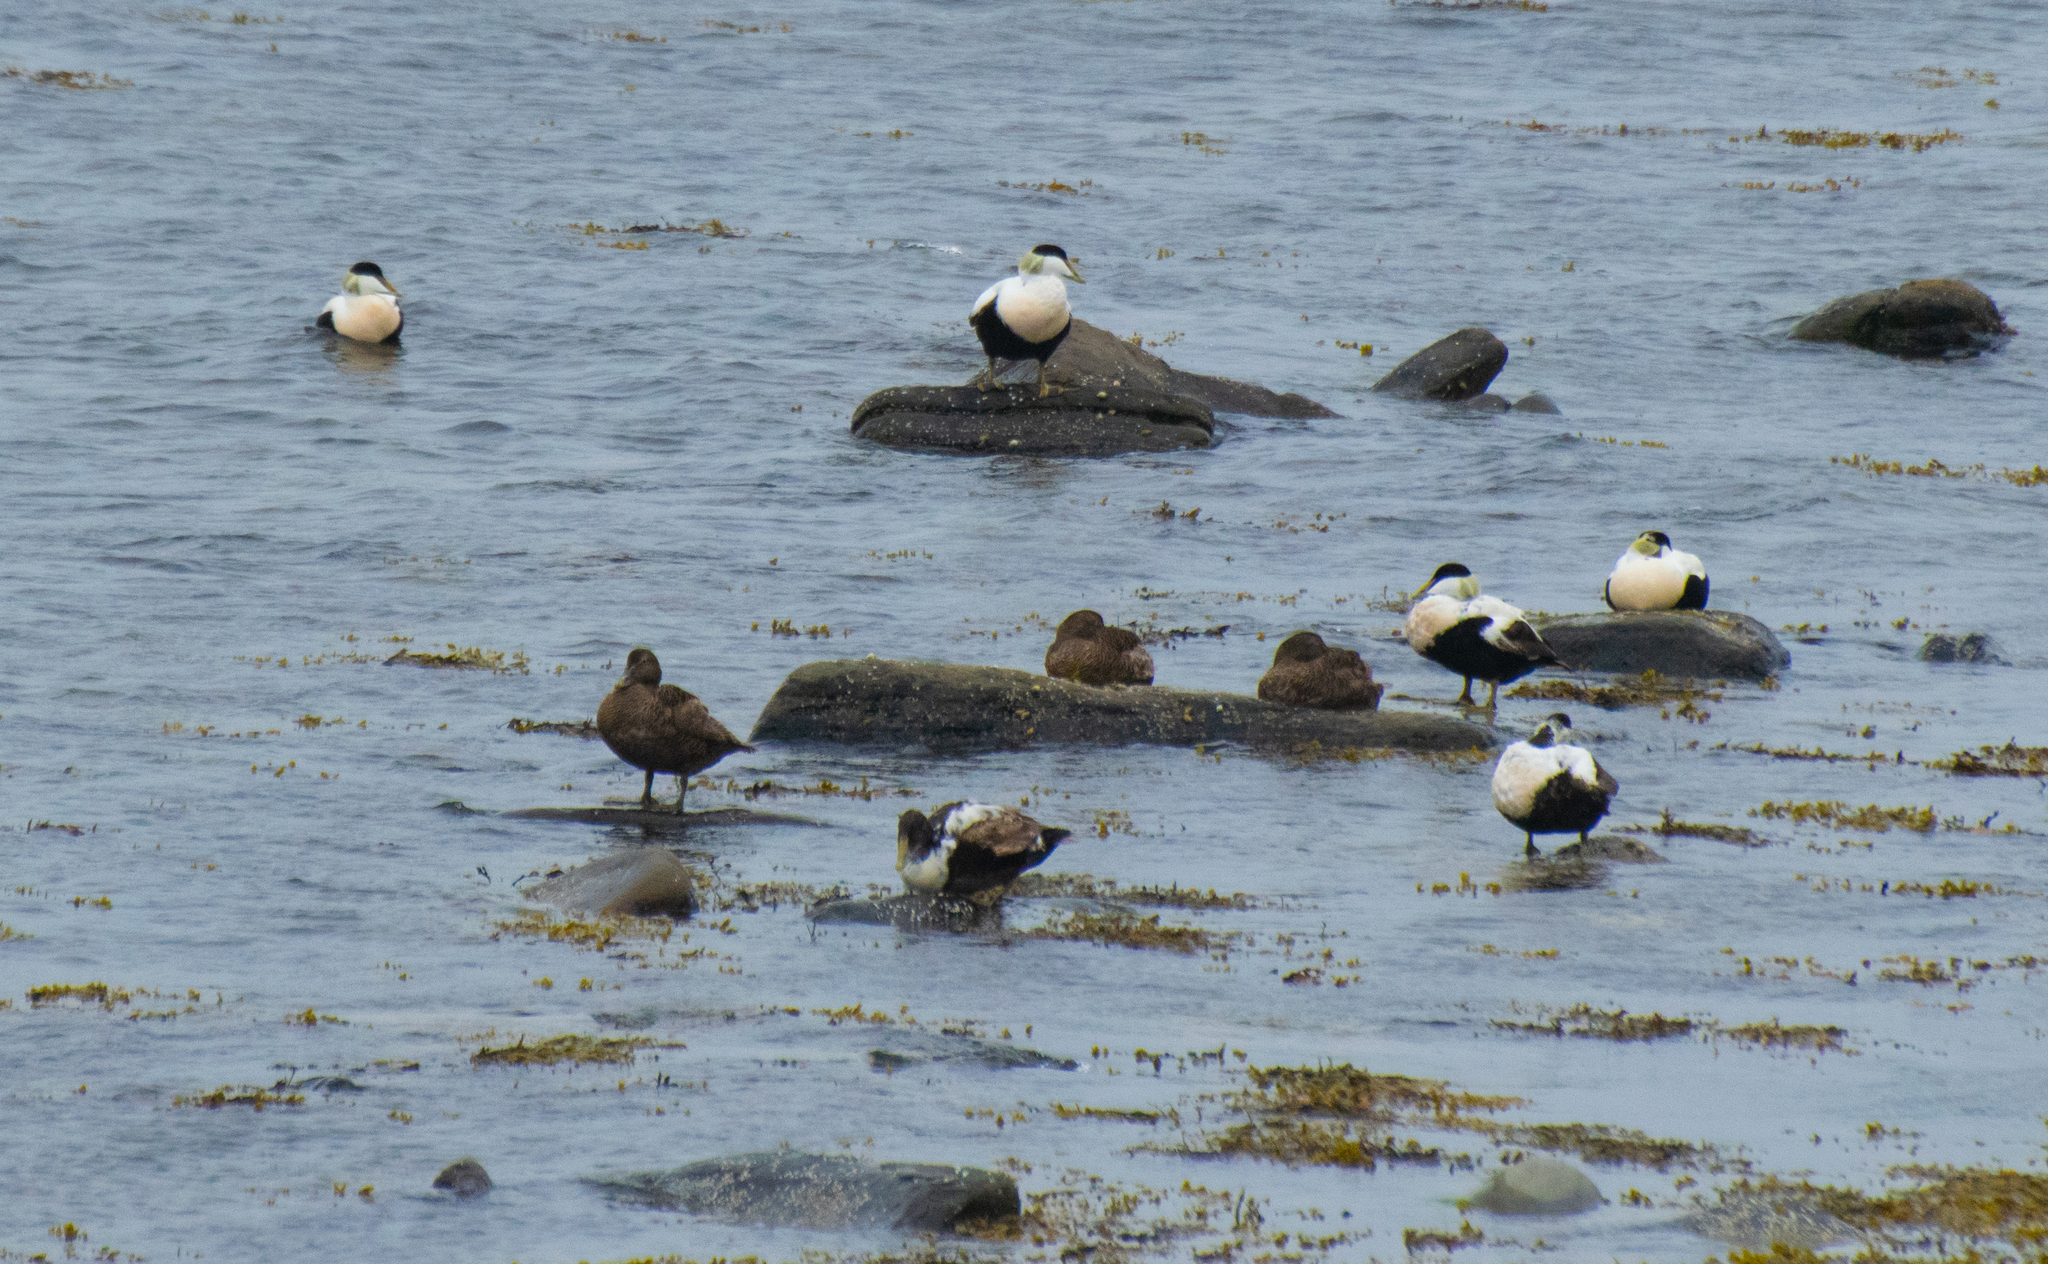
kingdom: Animalia
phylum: Chordata
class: Aves
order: Anseriformes
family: Anatidae
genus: Somateria
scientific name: Somateria mollissima
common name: Common eider
